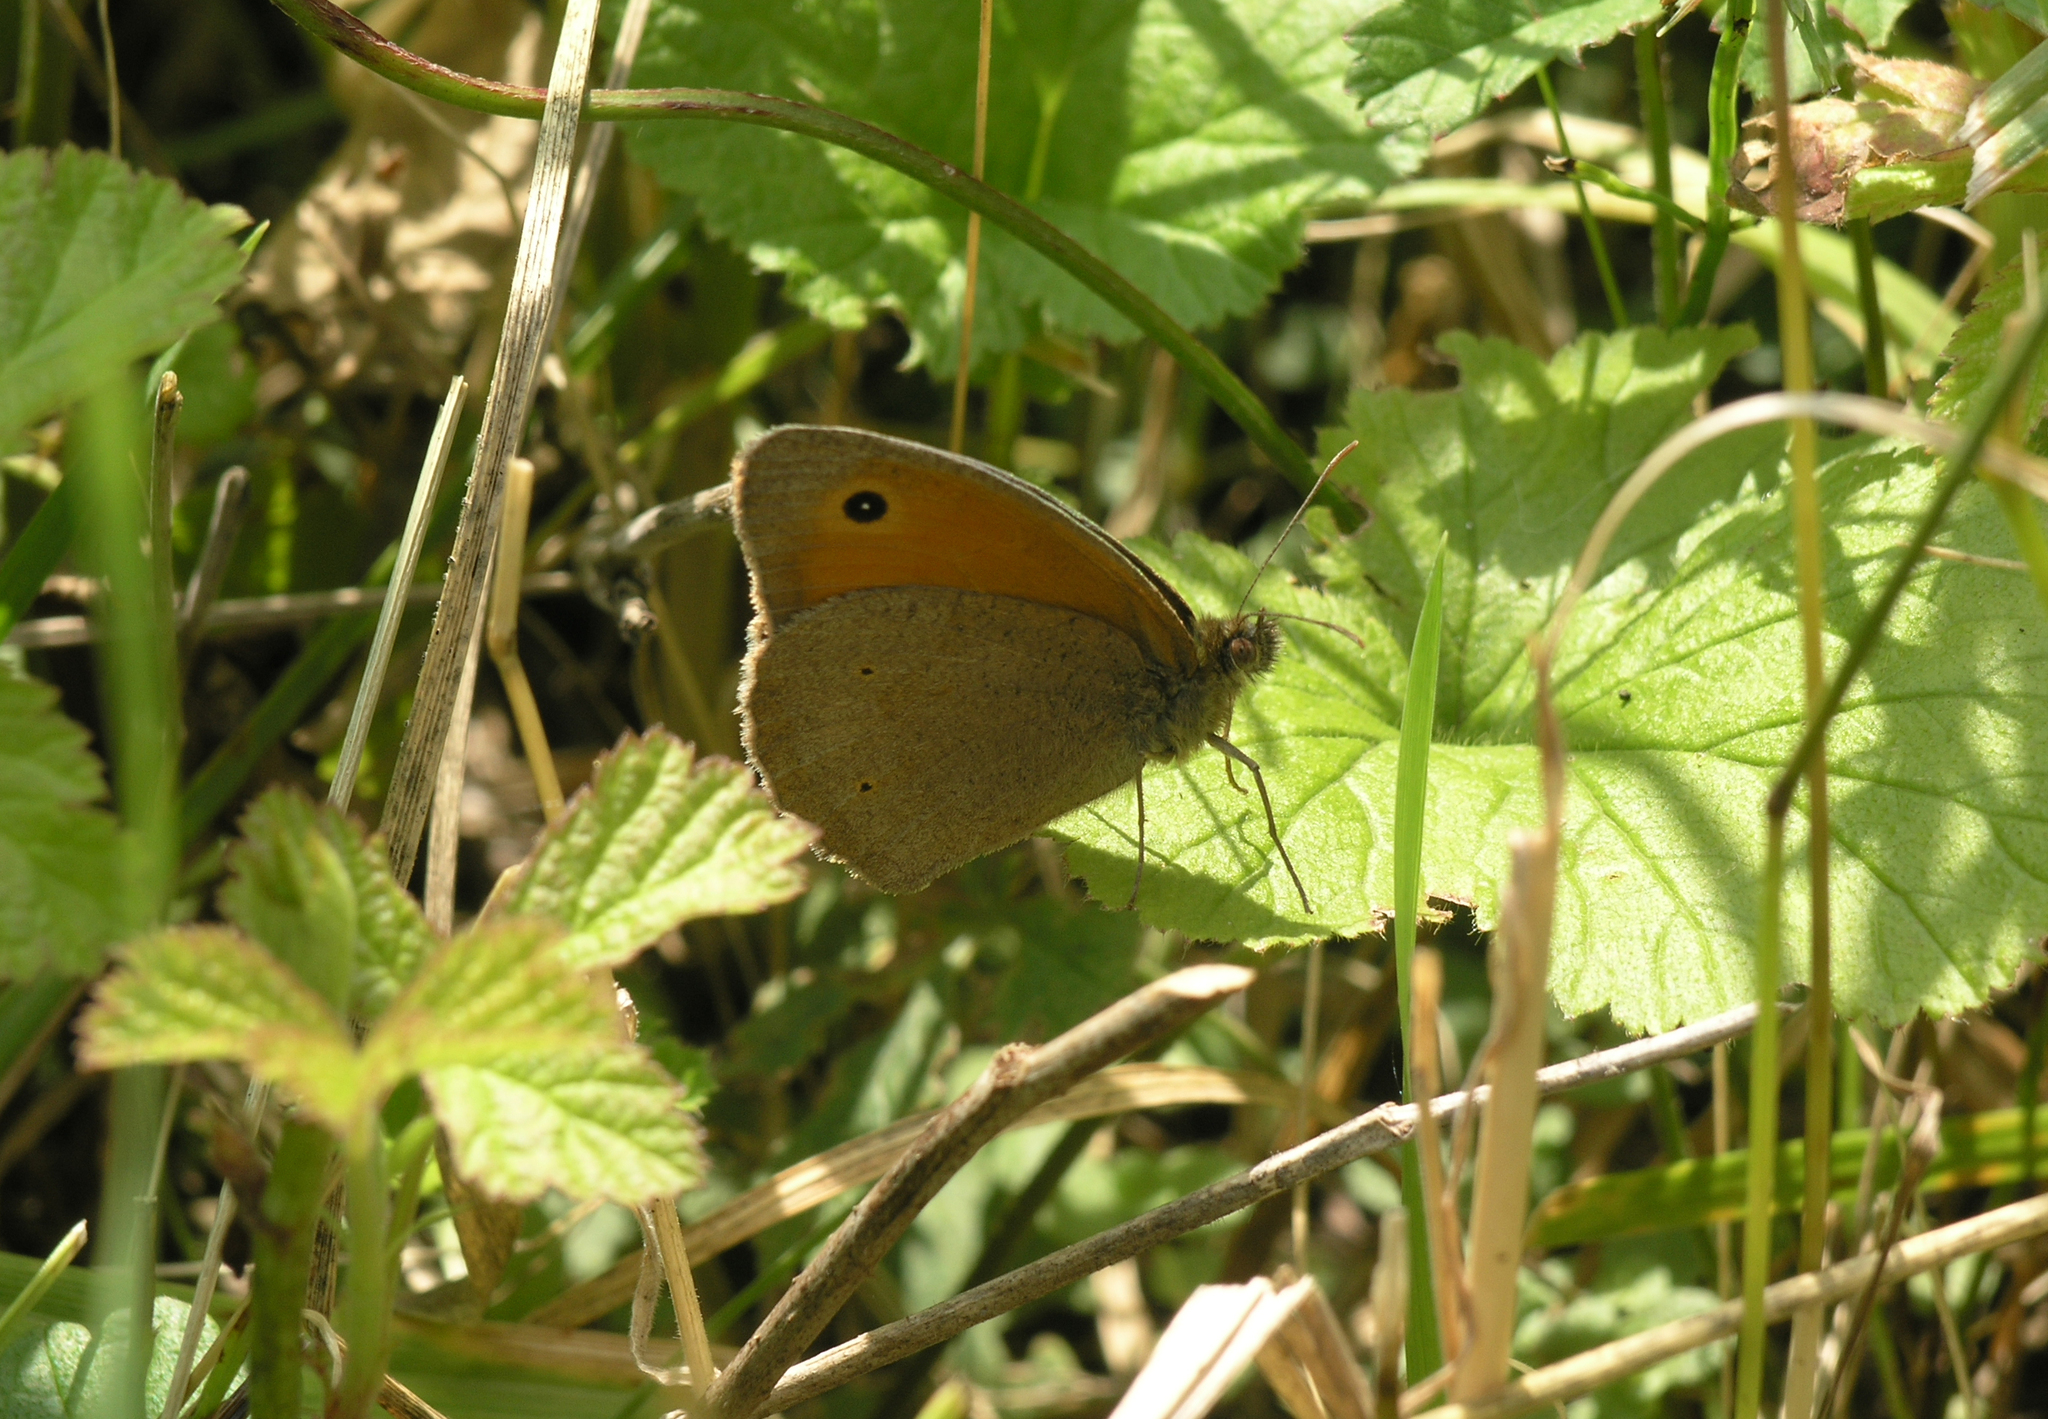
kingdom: Animalia
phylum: Arthropoda
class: Insecta
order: Lepidoptera
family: Nymphalidae
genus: Maniola
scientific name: Maniola jurtina
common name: Meadow brown
